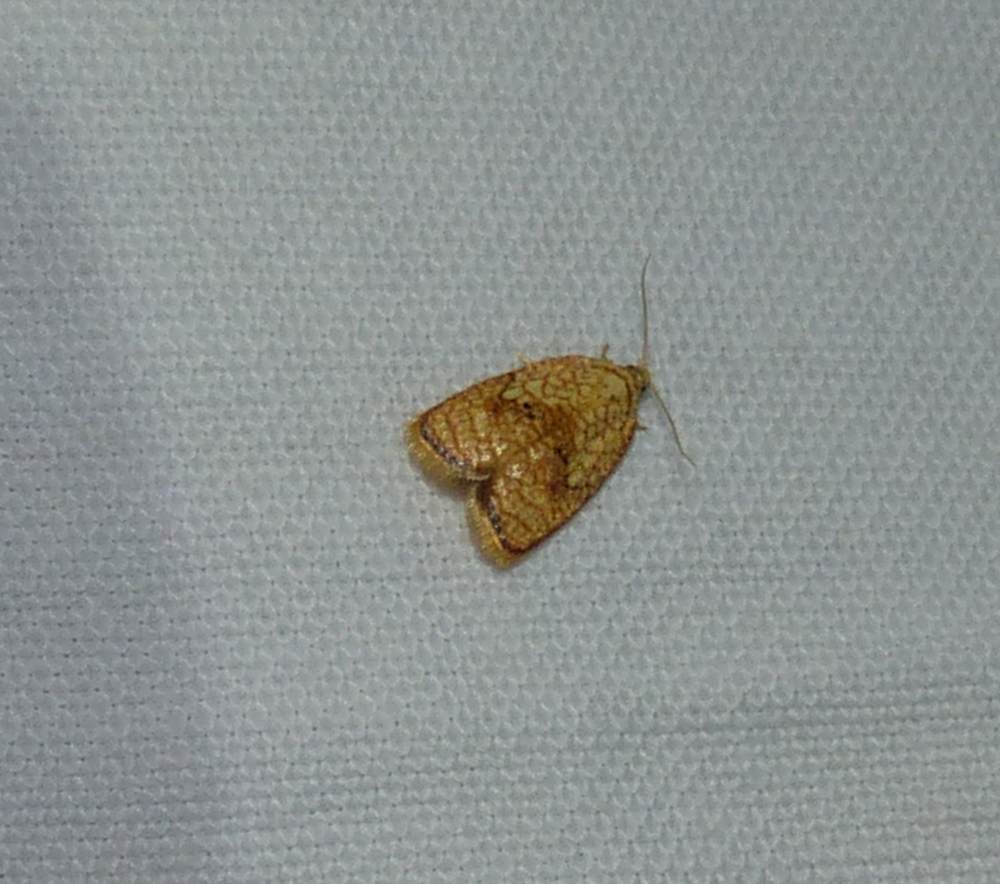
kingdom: Animalia
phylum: Arthropoda
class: Insecta
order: Lepidoptera
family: Tortricidae
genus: Acleris
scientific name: Acleris forsskaleana
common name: Maple button
